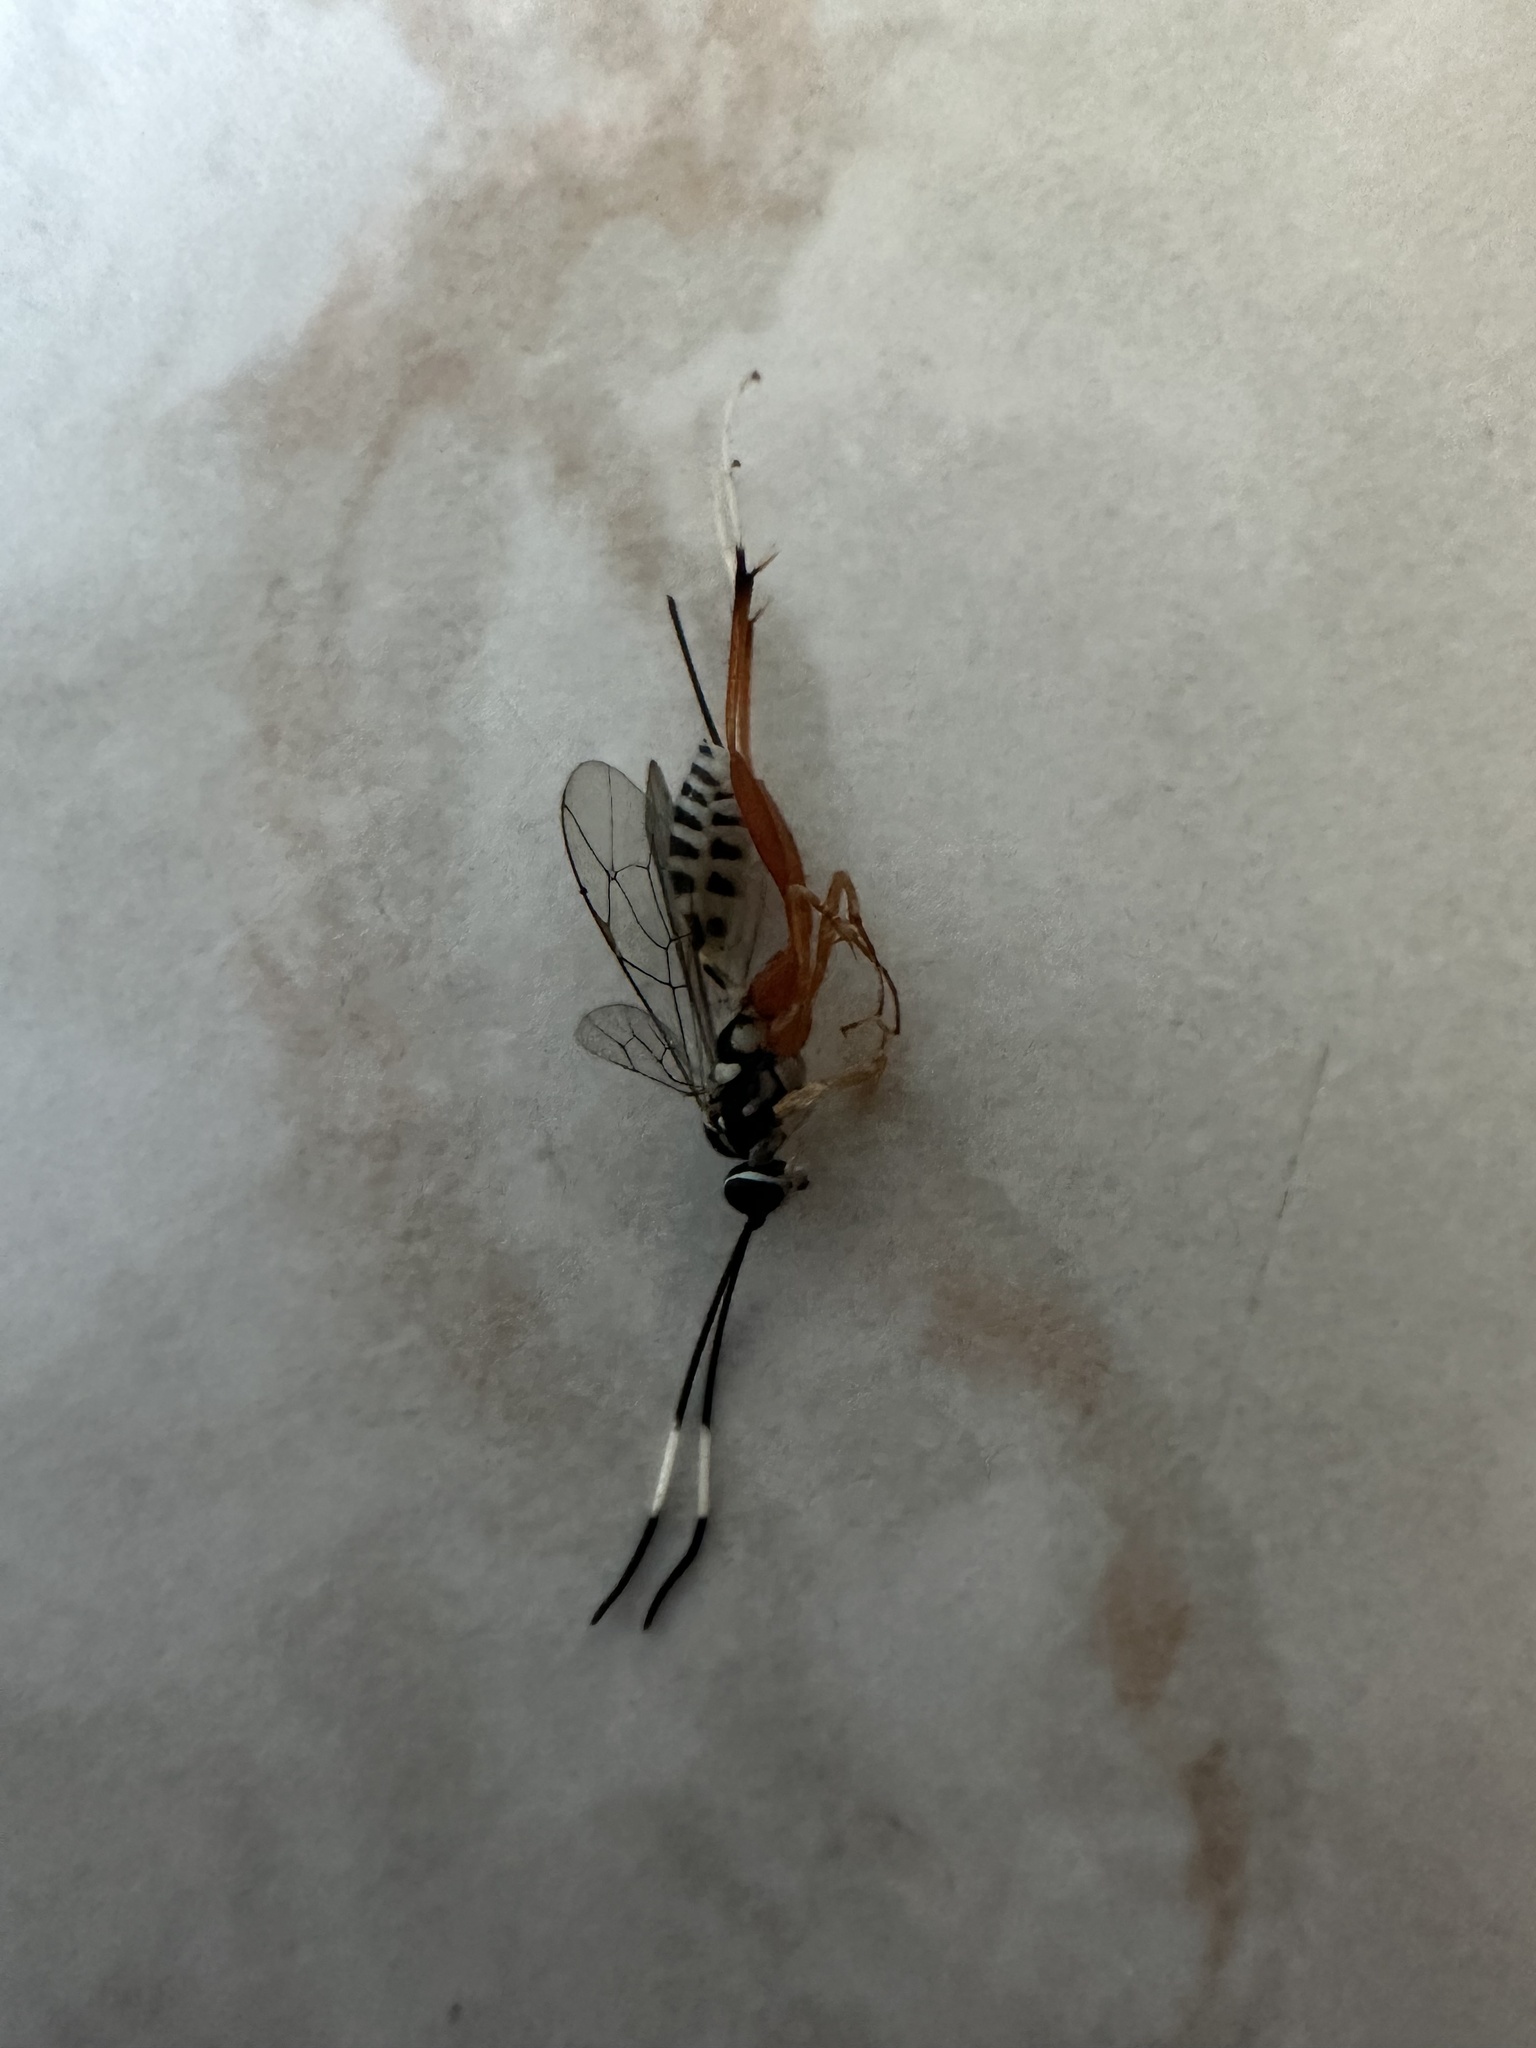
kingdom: Animalia
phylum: Arthropoda
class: Insecta
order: Hymenoptera
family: Ichneumonidae
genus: Messatoporus
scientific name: Messatoporus discoidalis
